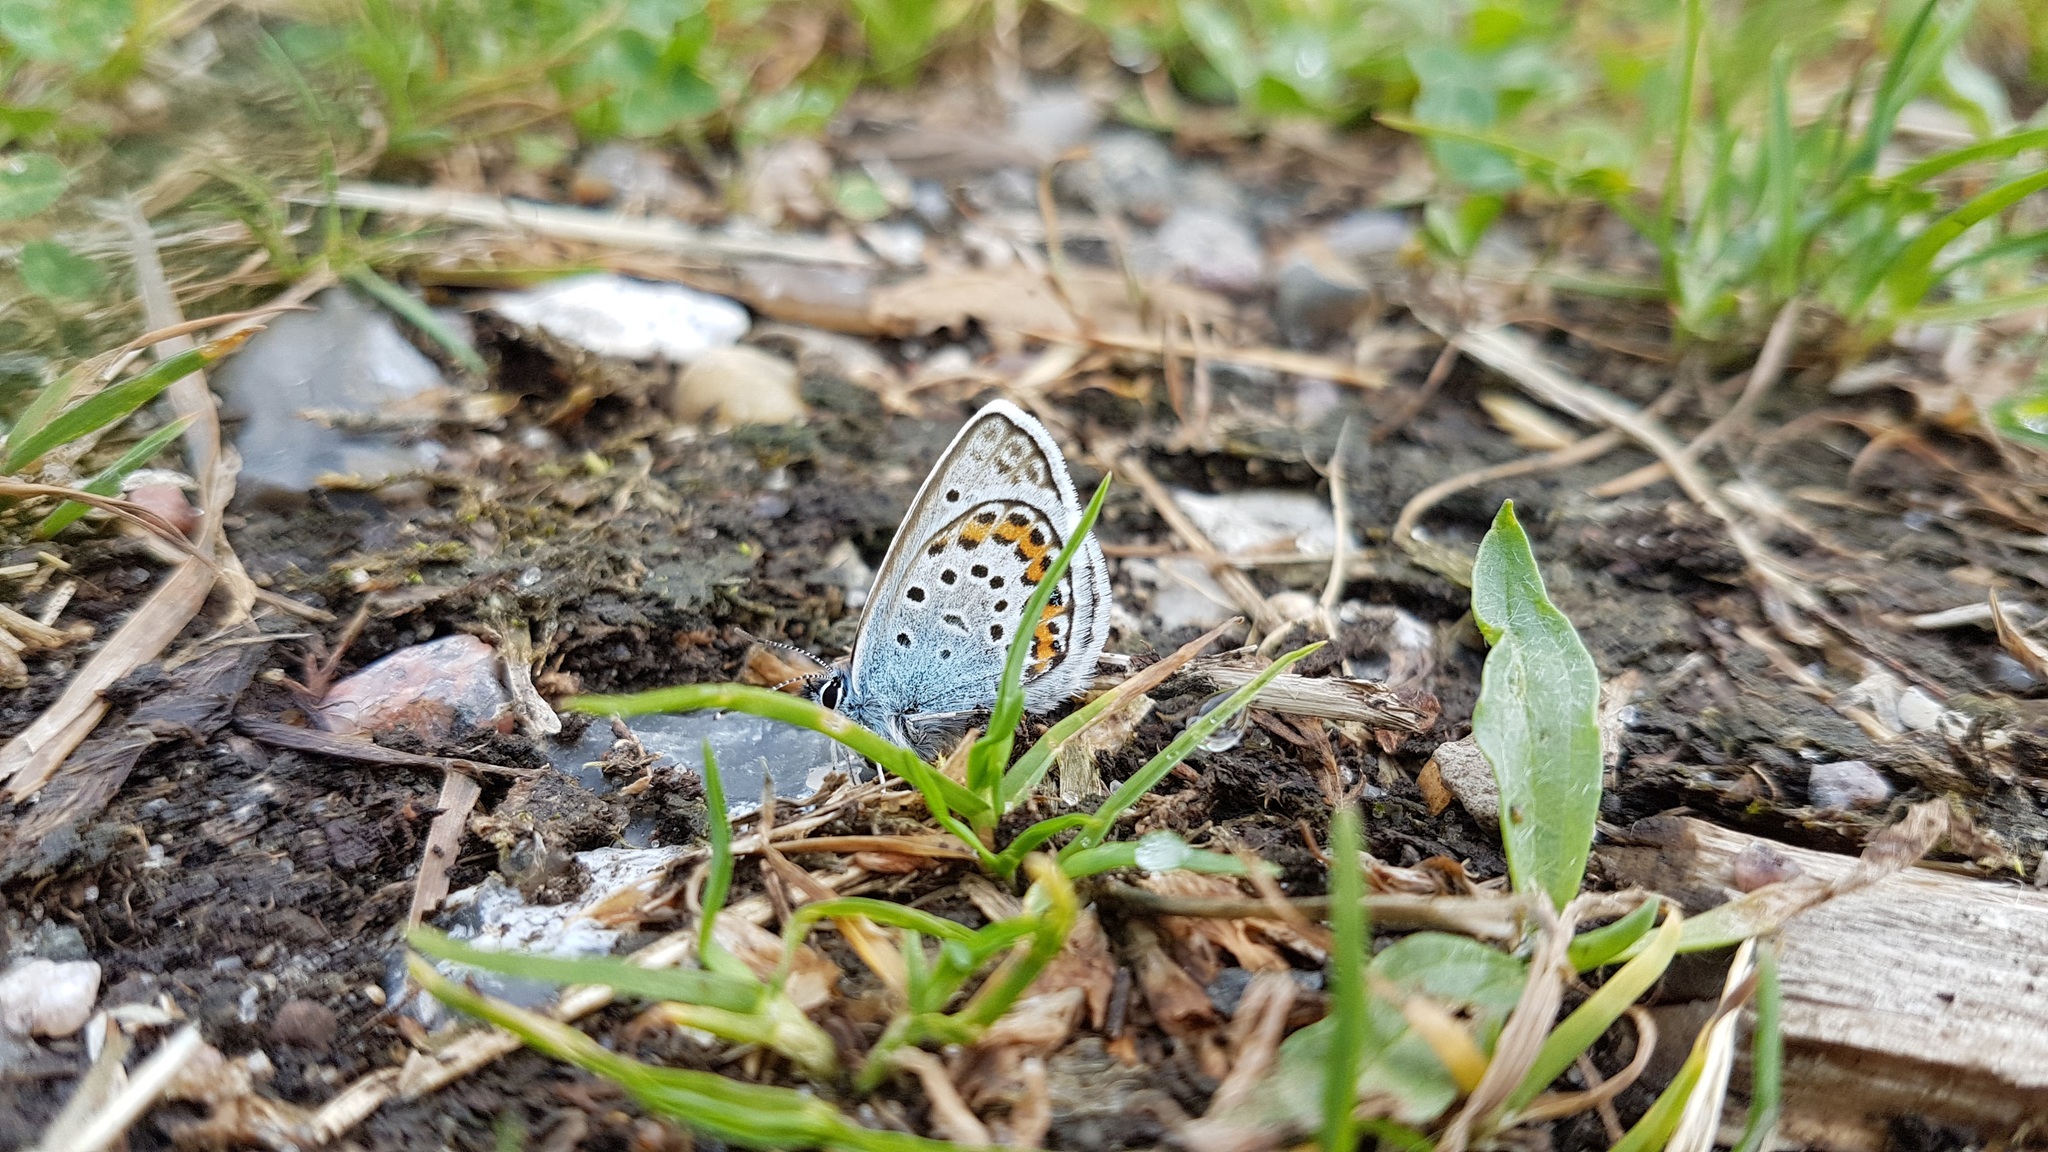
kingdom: Animalia
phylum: Arthropoda
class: Insecta
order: Lepidoptera
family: Lycaenidae
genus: Plebejus
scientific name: Plebejus argus
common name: Silver-studded blue
